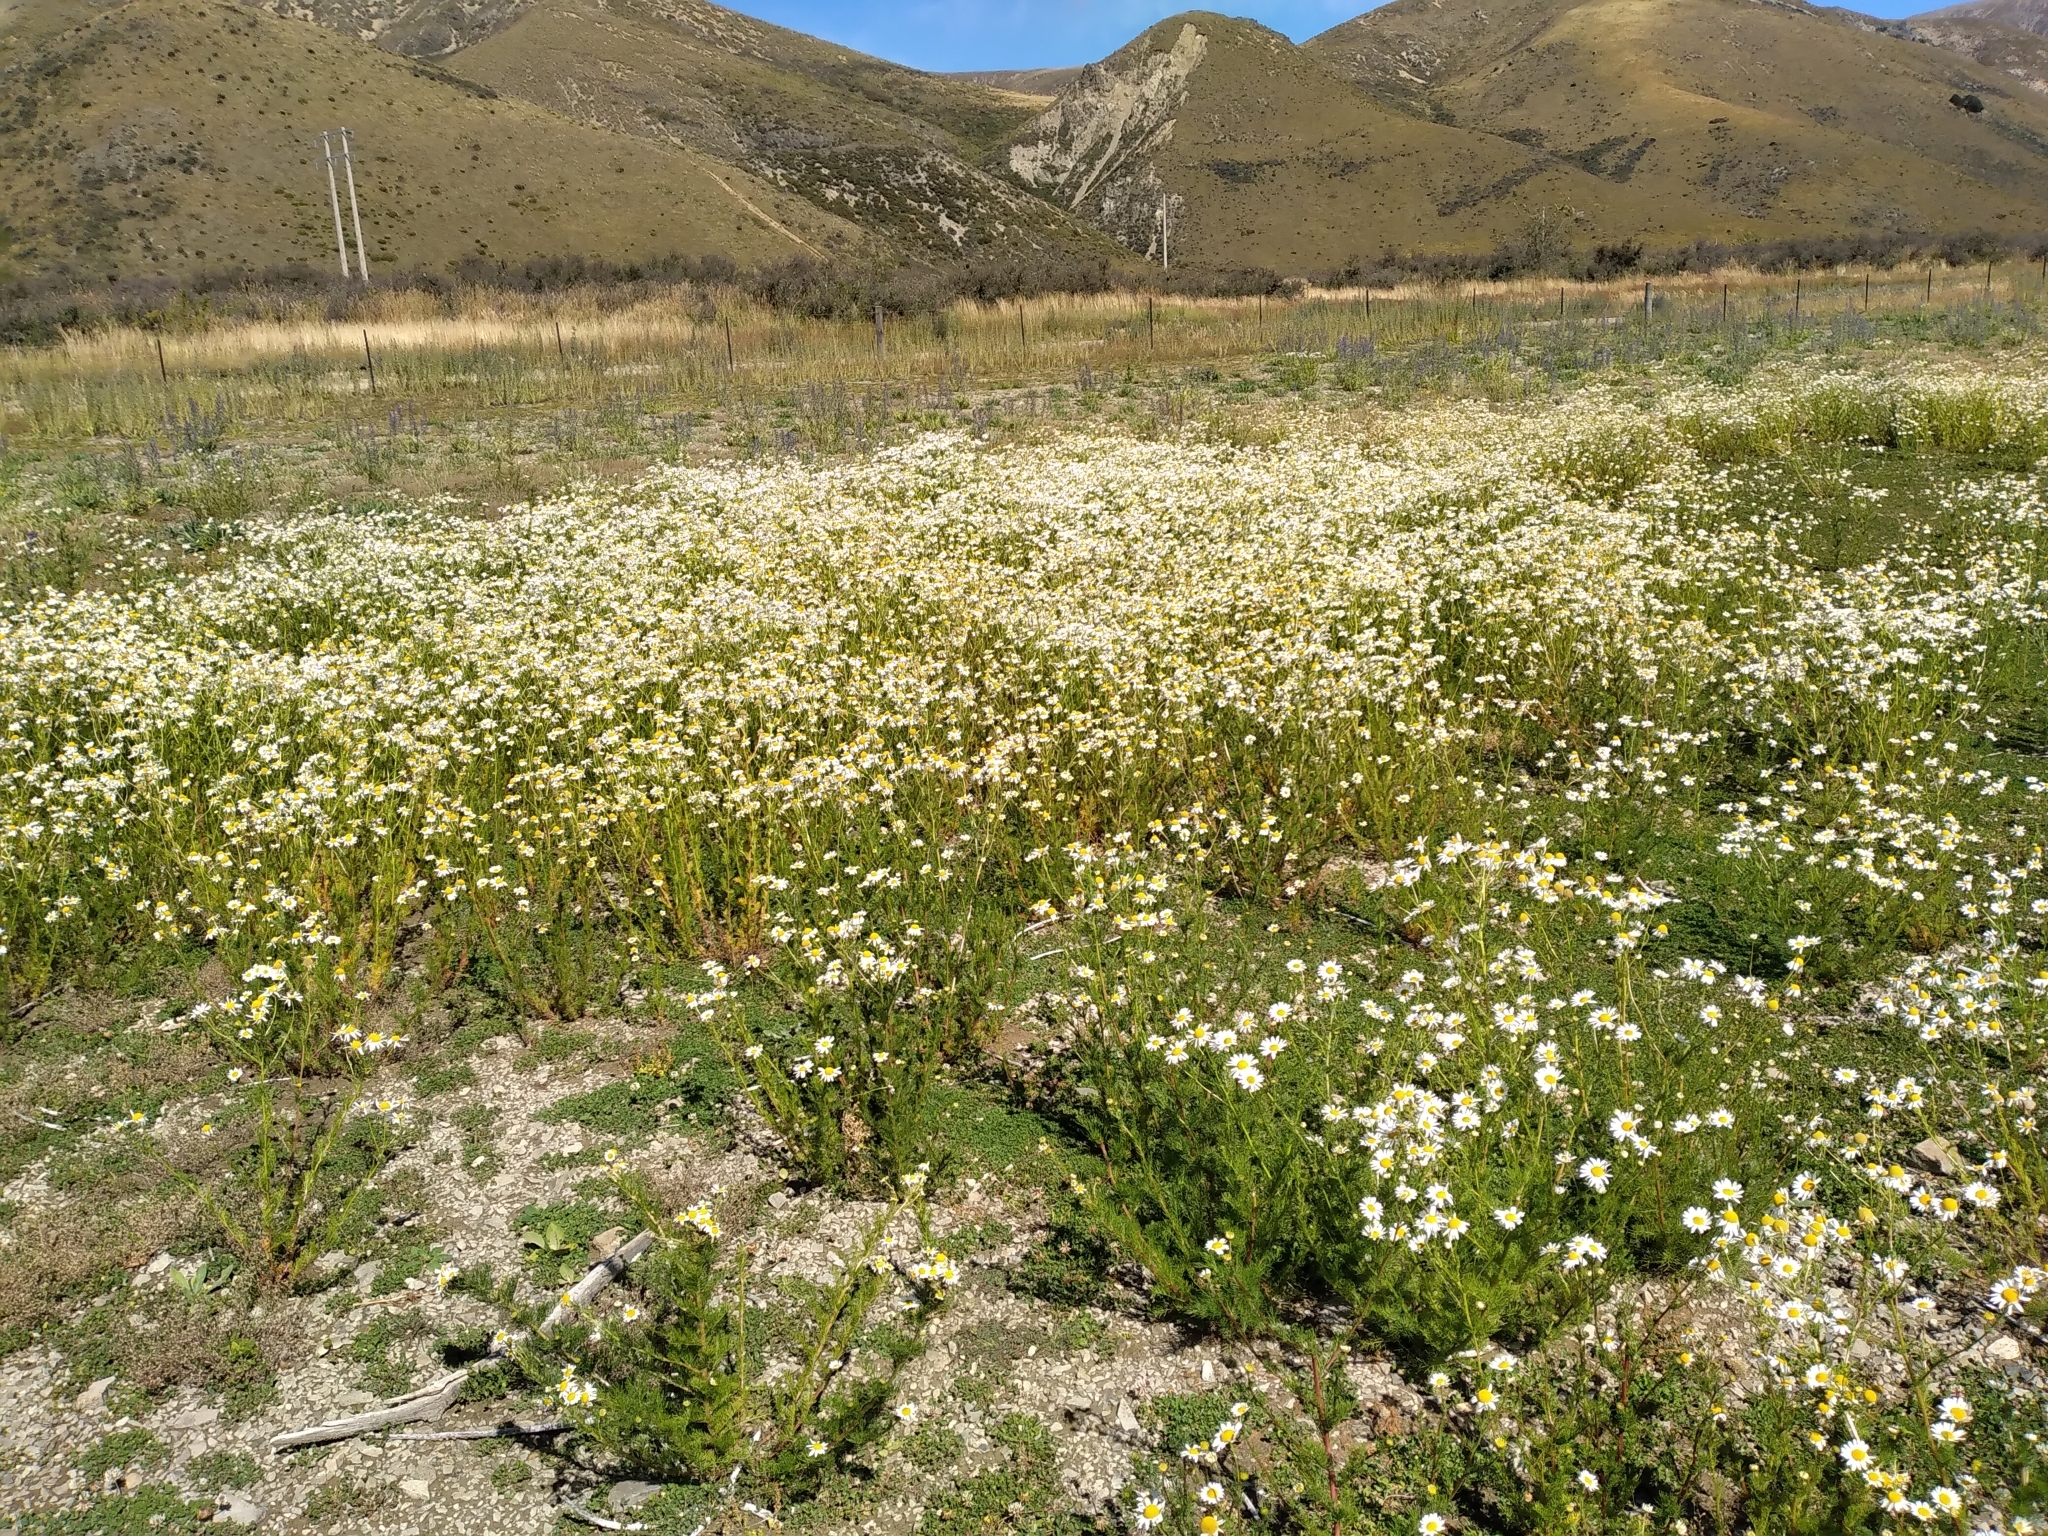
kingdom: Plantae
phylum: Tracheophyta
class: Magnoliopsida
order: Asterales
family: Asteraceae
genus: Tripleurospermum
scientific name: Tripleurospermum inodorum
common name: Scentless mayweed
